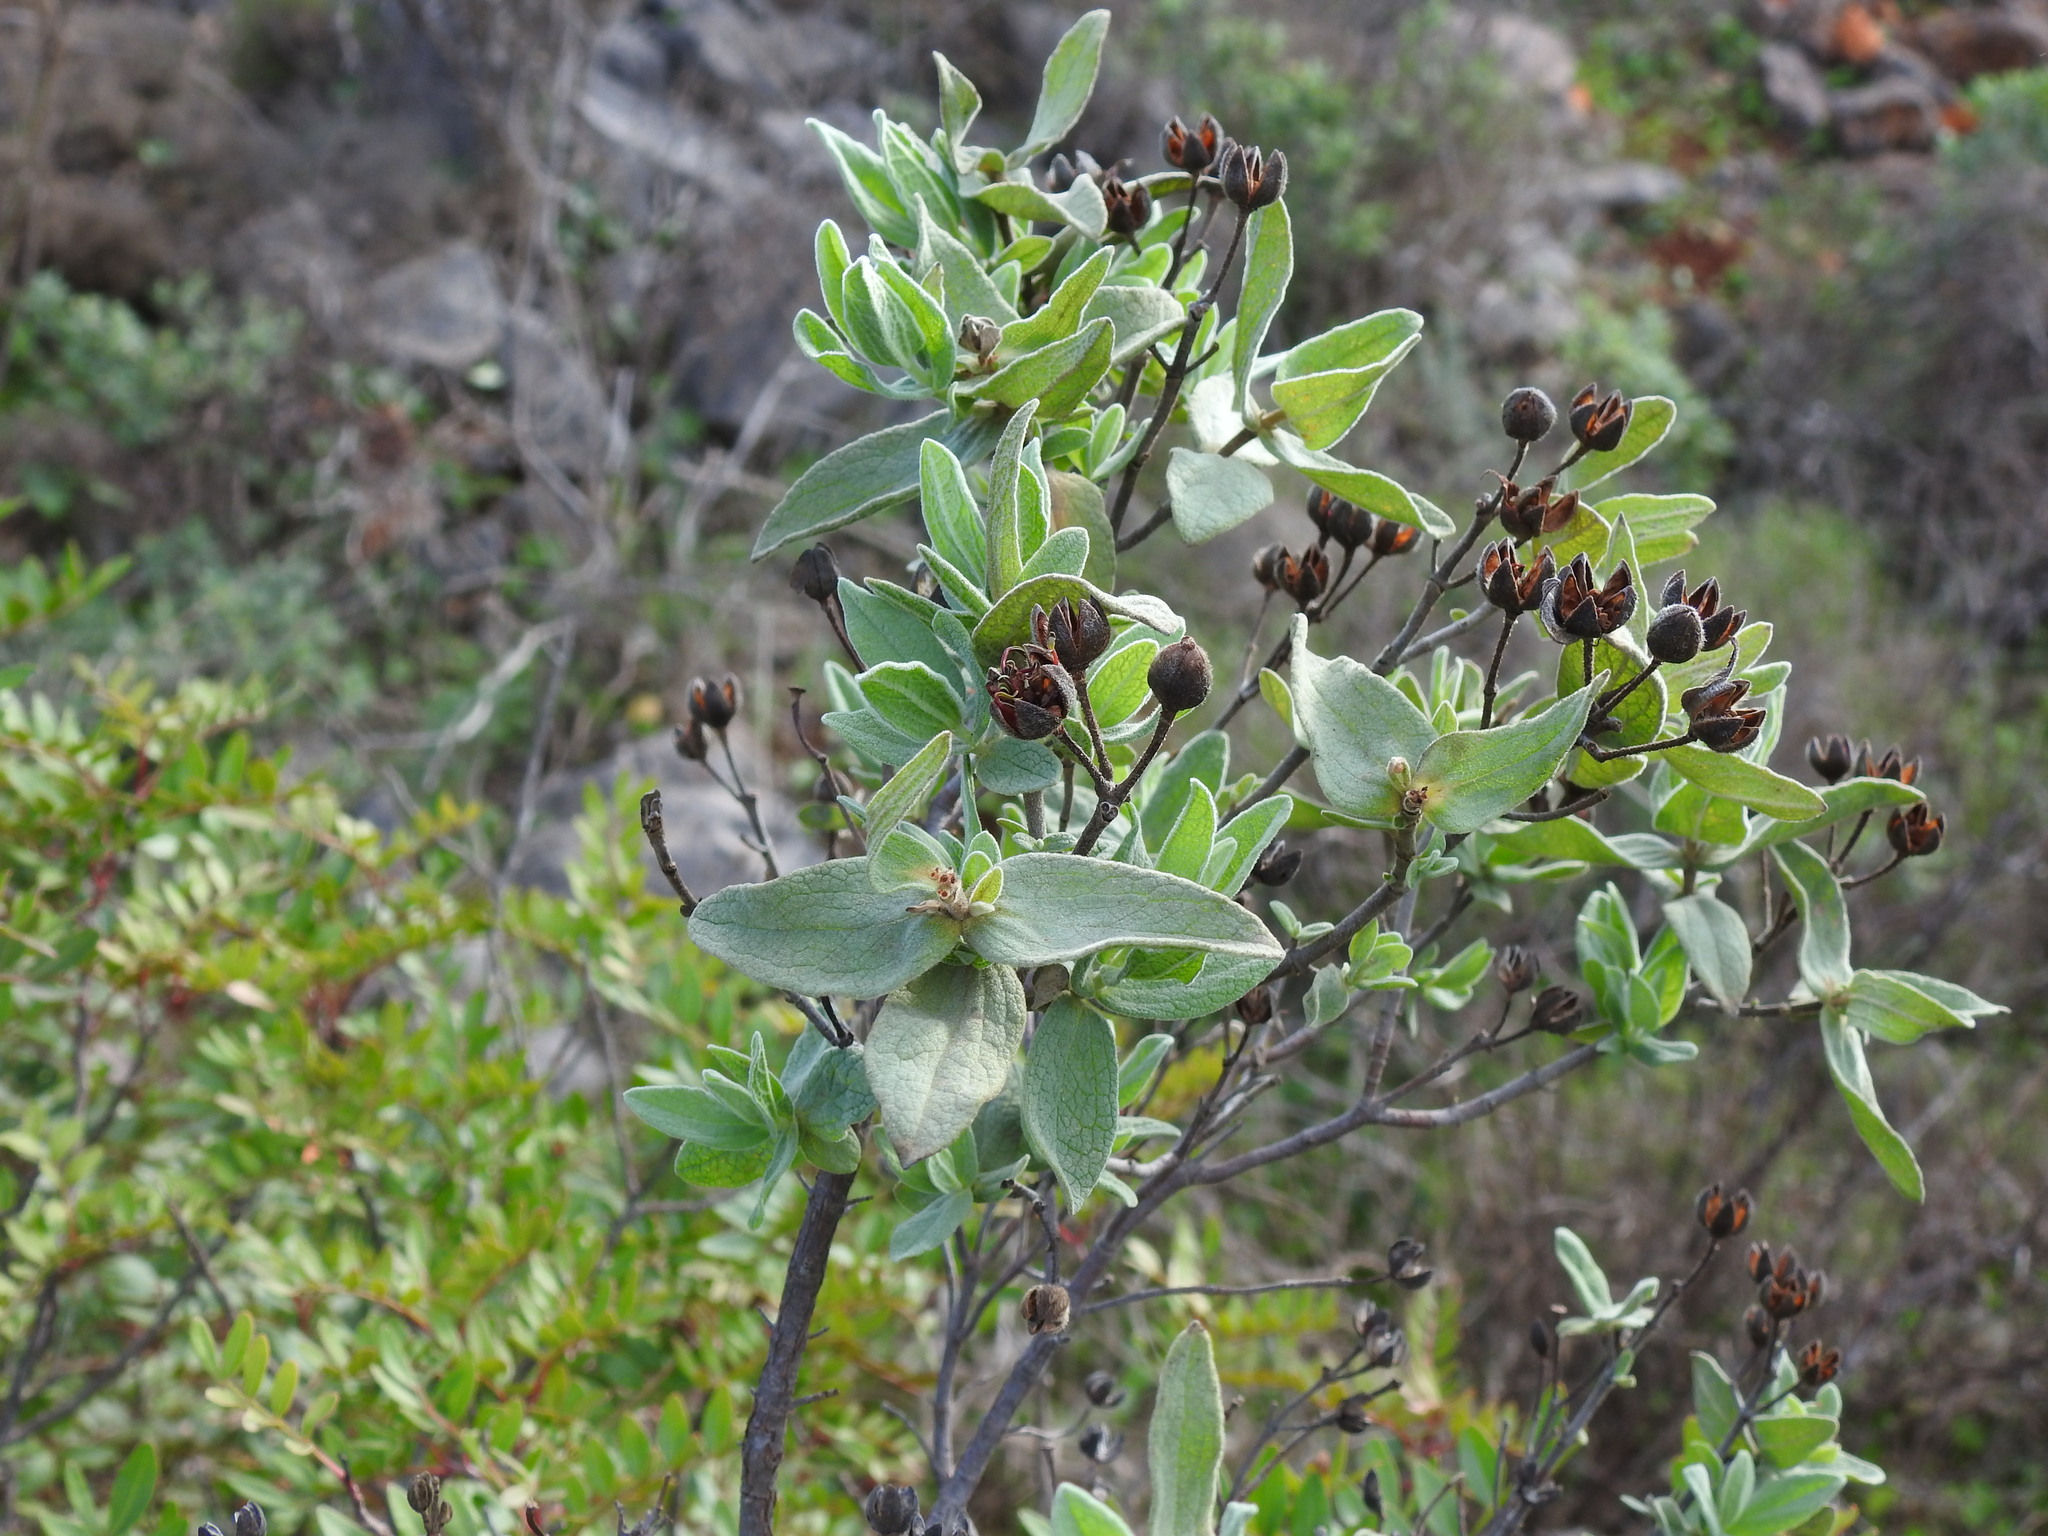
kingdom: Plantae
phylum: Tracheophyta
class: Magnoliopsida
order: Malvales
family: Cistaceae
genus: Cistus
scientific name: Cistus albidus
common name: White-leaf rock-rose
